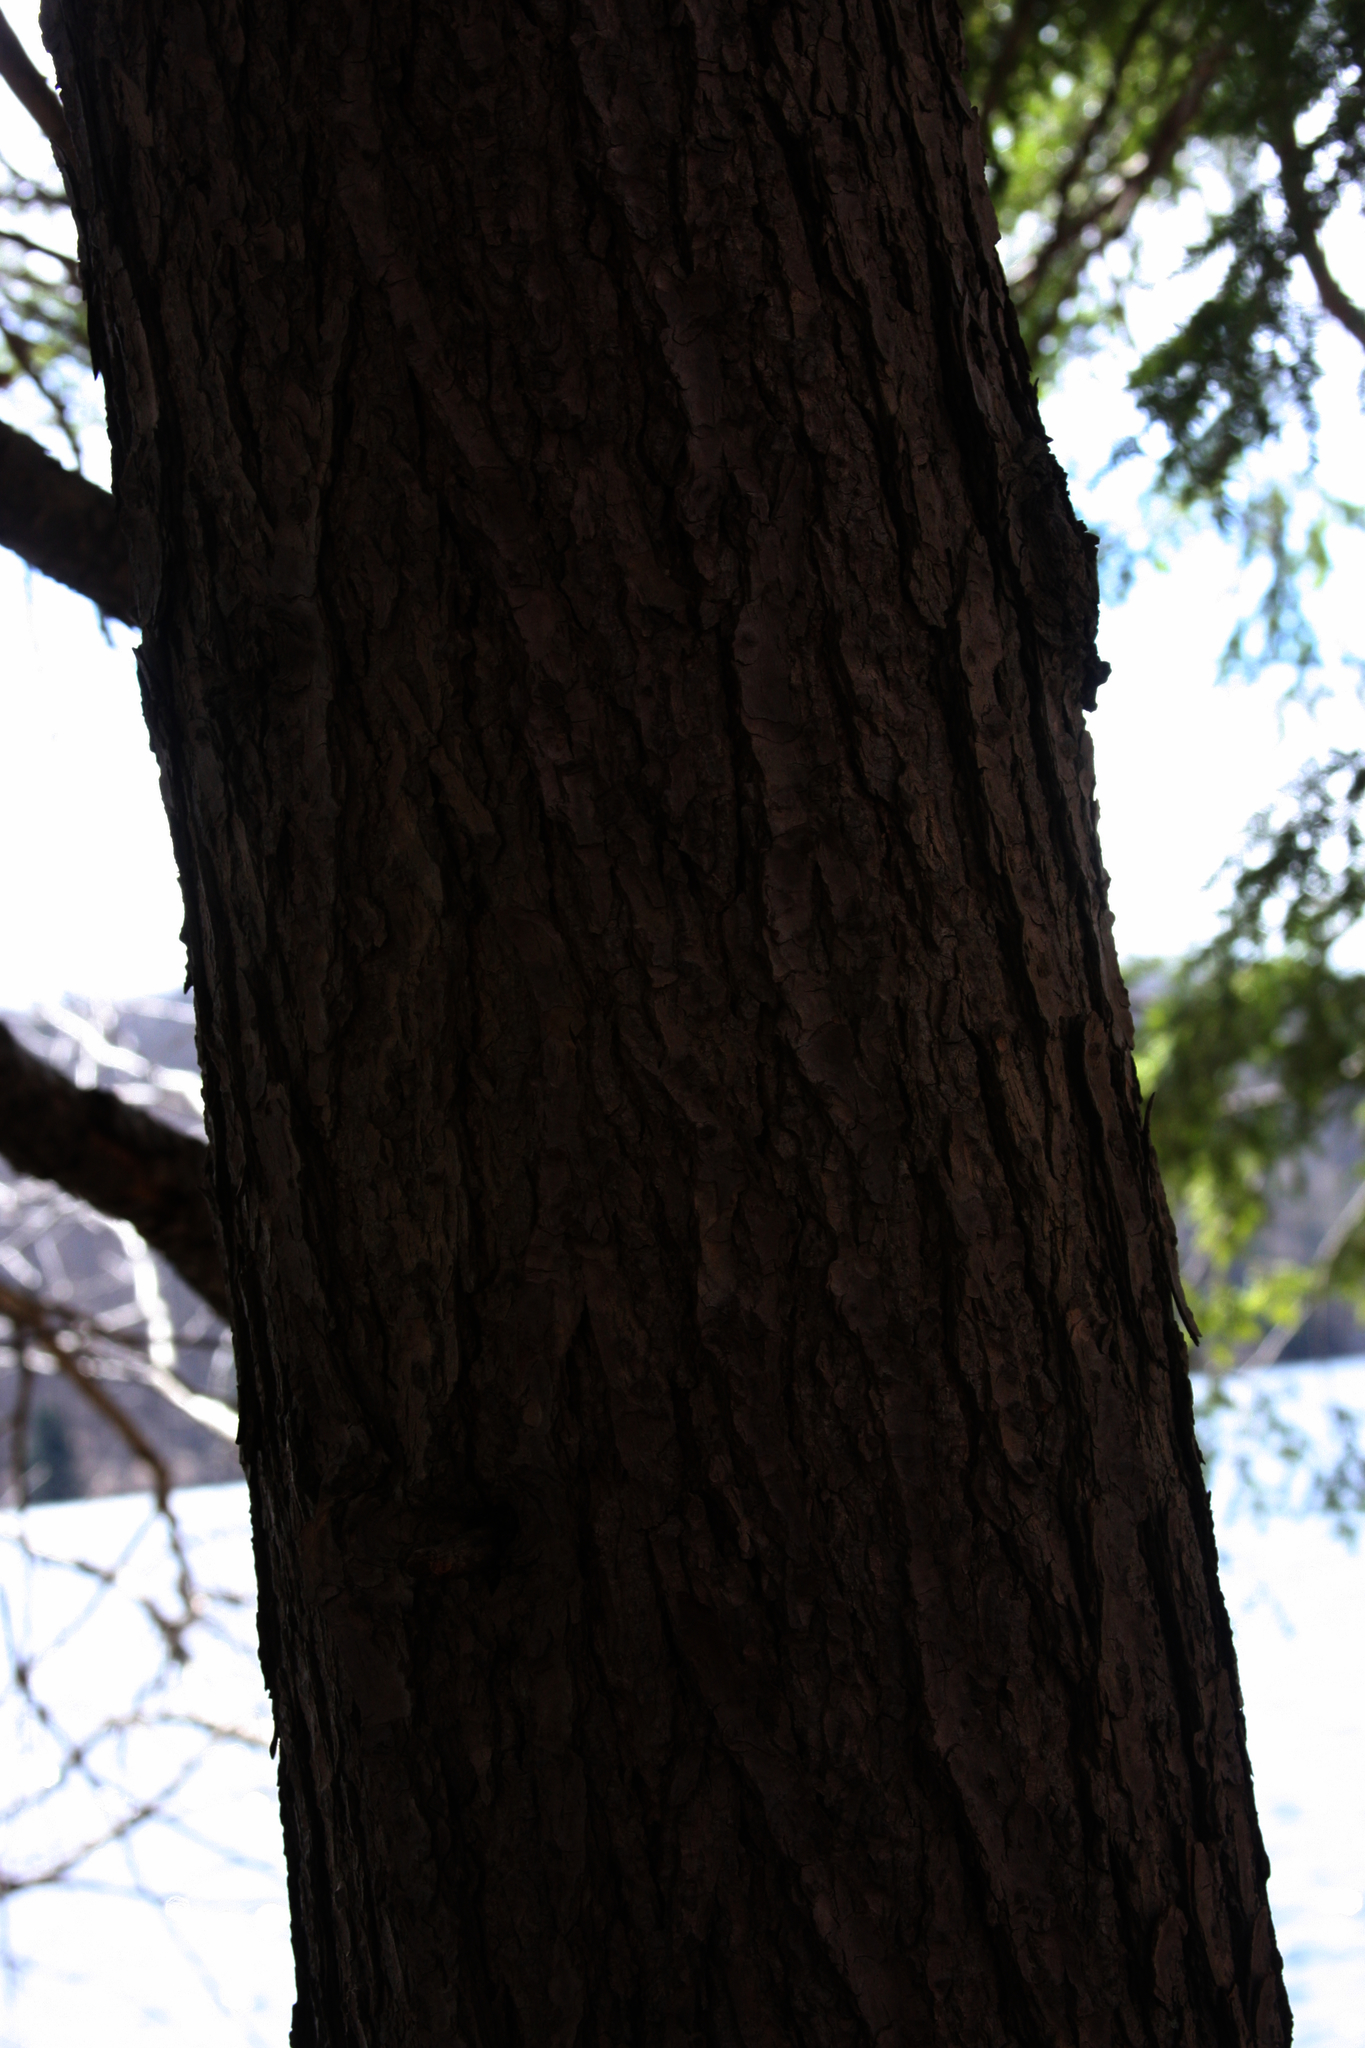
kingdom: Plantae
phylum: Tracheophyta
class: Pinopsida
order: Pinales
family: Pinaceae
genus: Tsuga
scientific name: Tsuga canadensis
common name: Eastern hemlock
